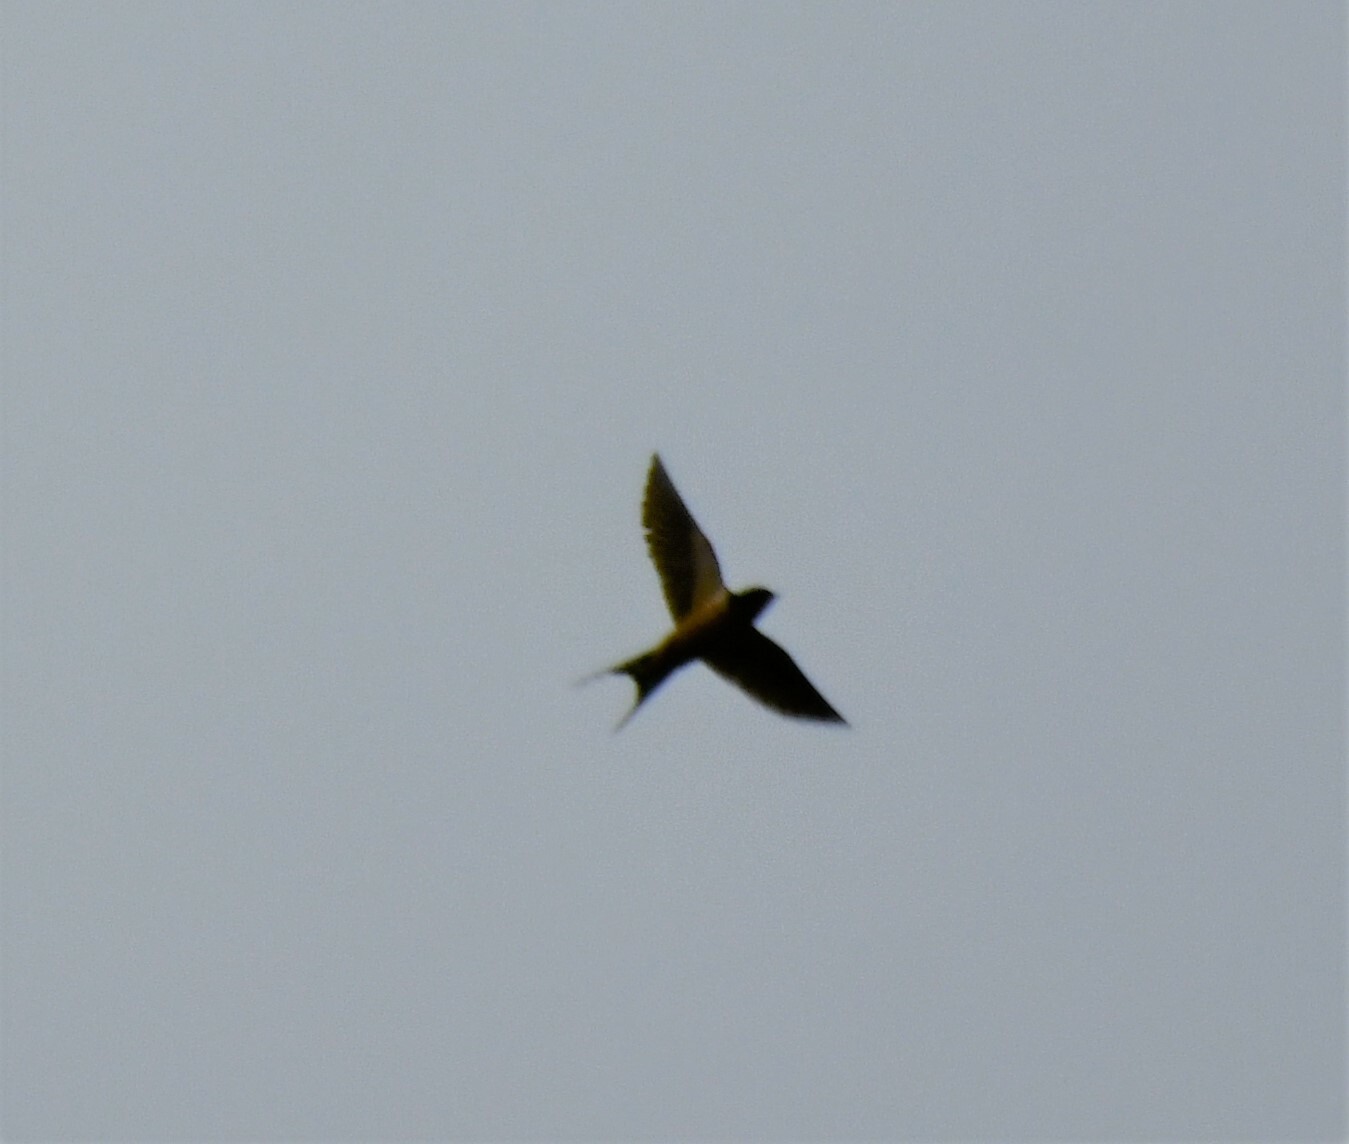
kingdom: Animalia
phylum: Chordata
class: Aves
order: Passeriformes
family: Hirundinidae
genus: Hirundo
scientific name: Hirundo rustica
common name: Barn swallow
